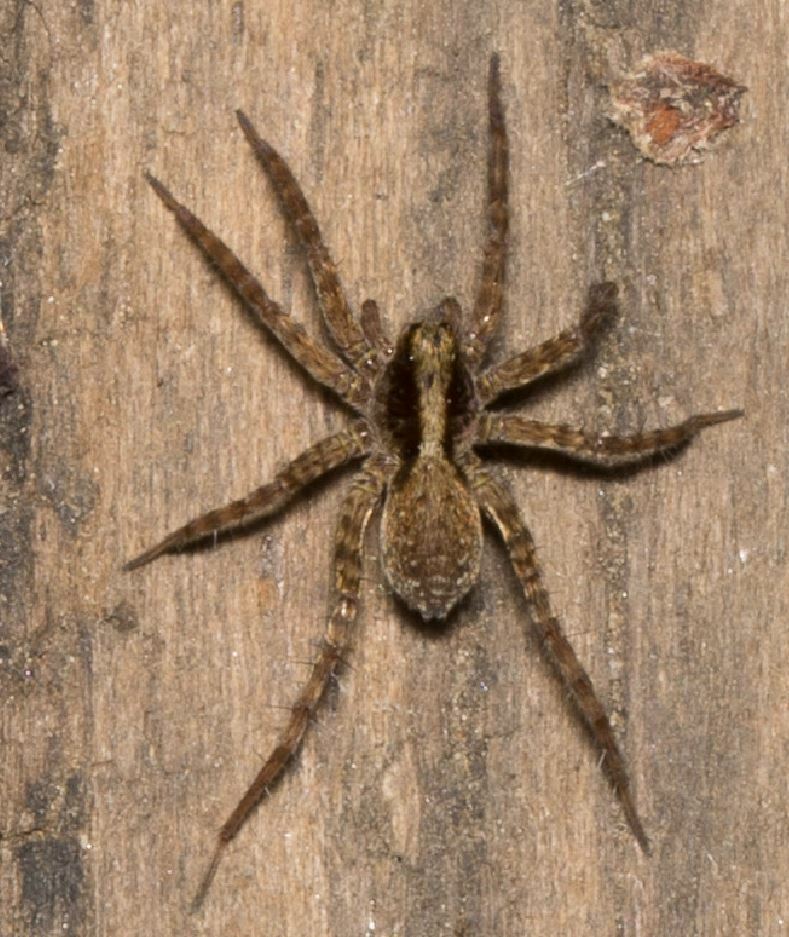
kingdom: Animalia
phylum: Arthropoda
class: Arachnida
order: Araneae
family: Lycosidae
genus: Pardosa
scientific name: Pardosa
